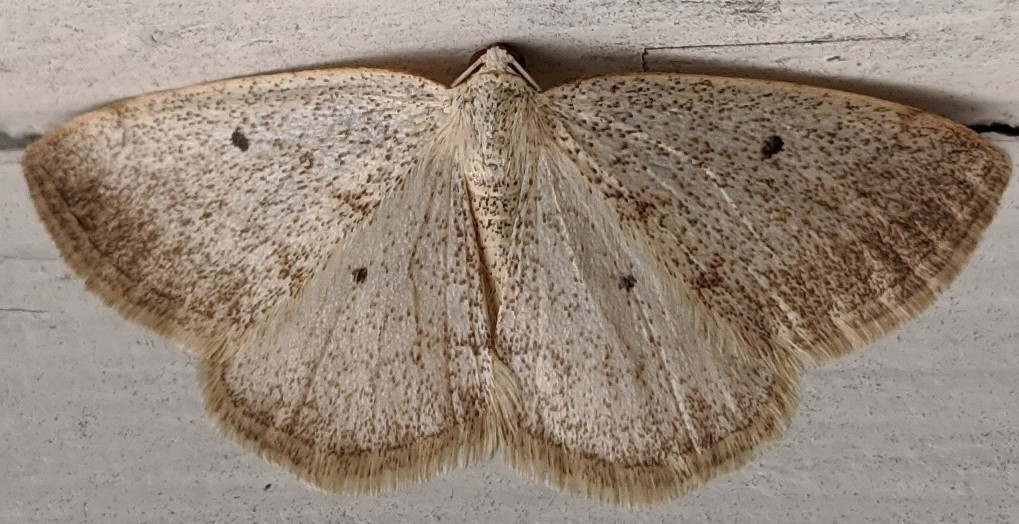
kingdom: Animalia
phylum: Arthropoda
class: Insecta
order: Lepidoptera
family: Geometridae
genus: Lomographa
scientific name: Lomographa glomeraria
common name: Gray spring moth
